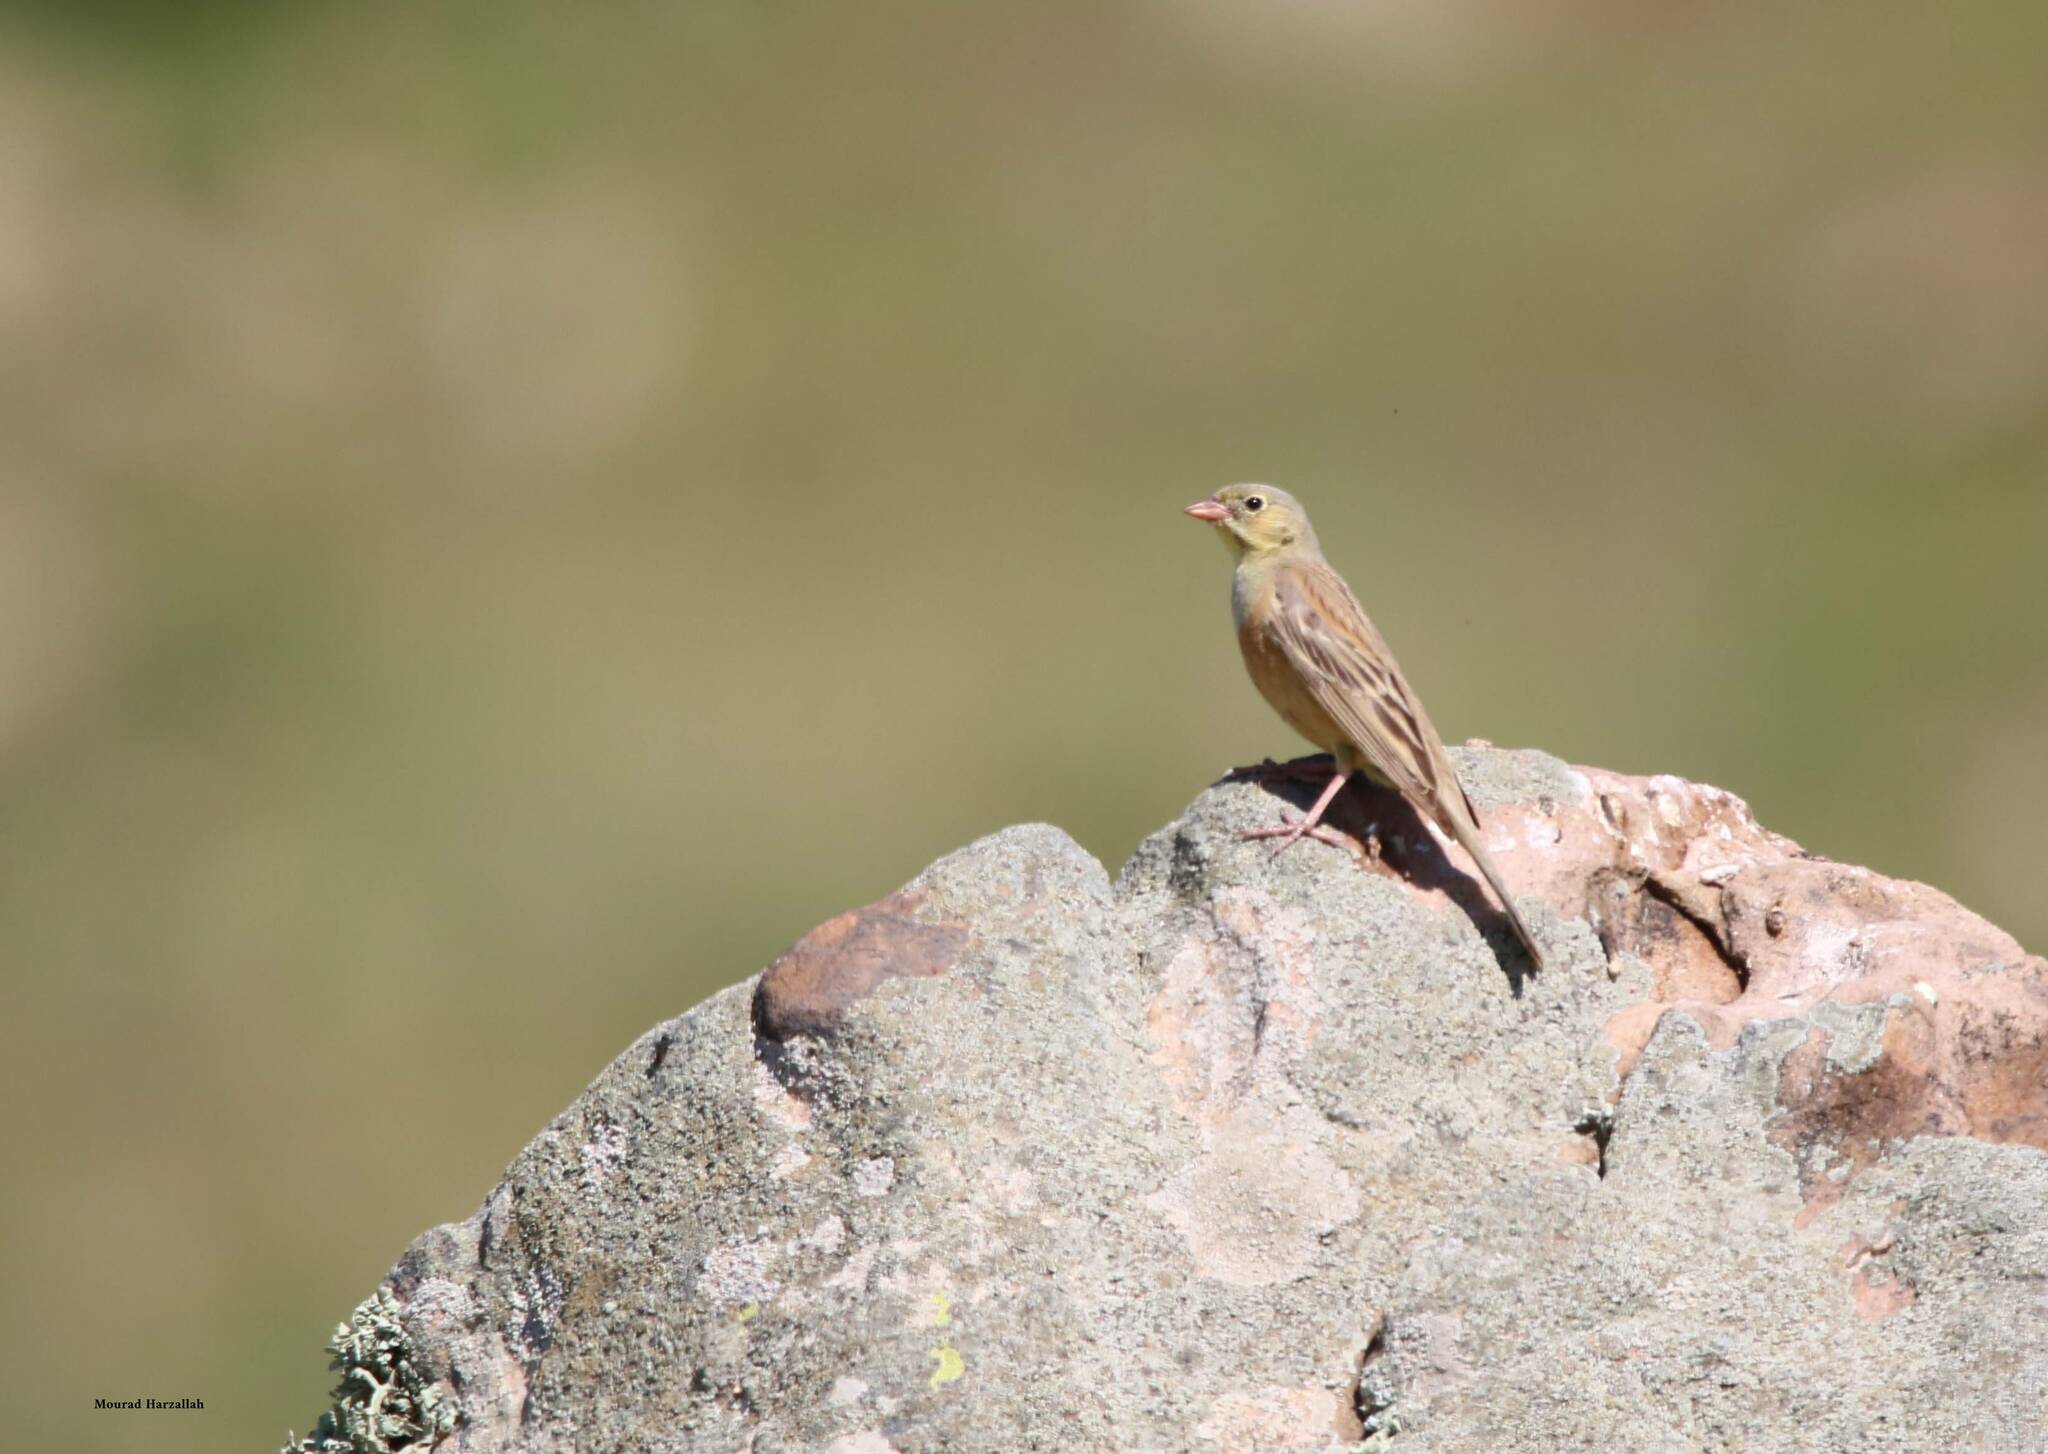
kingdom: Animalia
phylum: Chordata
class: Aves
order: Passeriformes
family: Emberizidae
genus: Emberiza
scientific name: Emberiza hortulana
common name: Ortolan bunting
